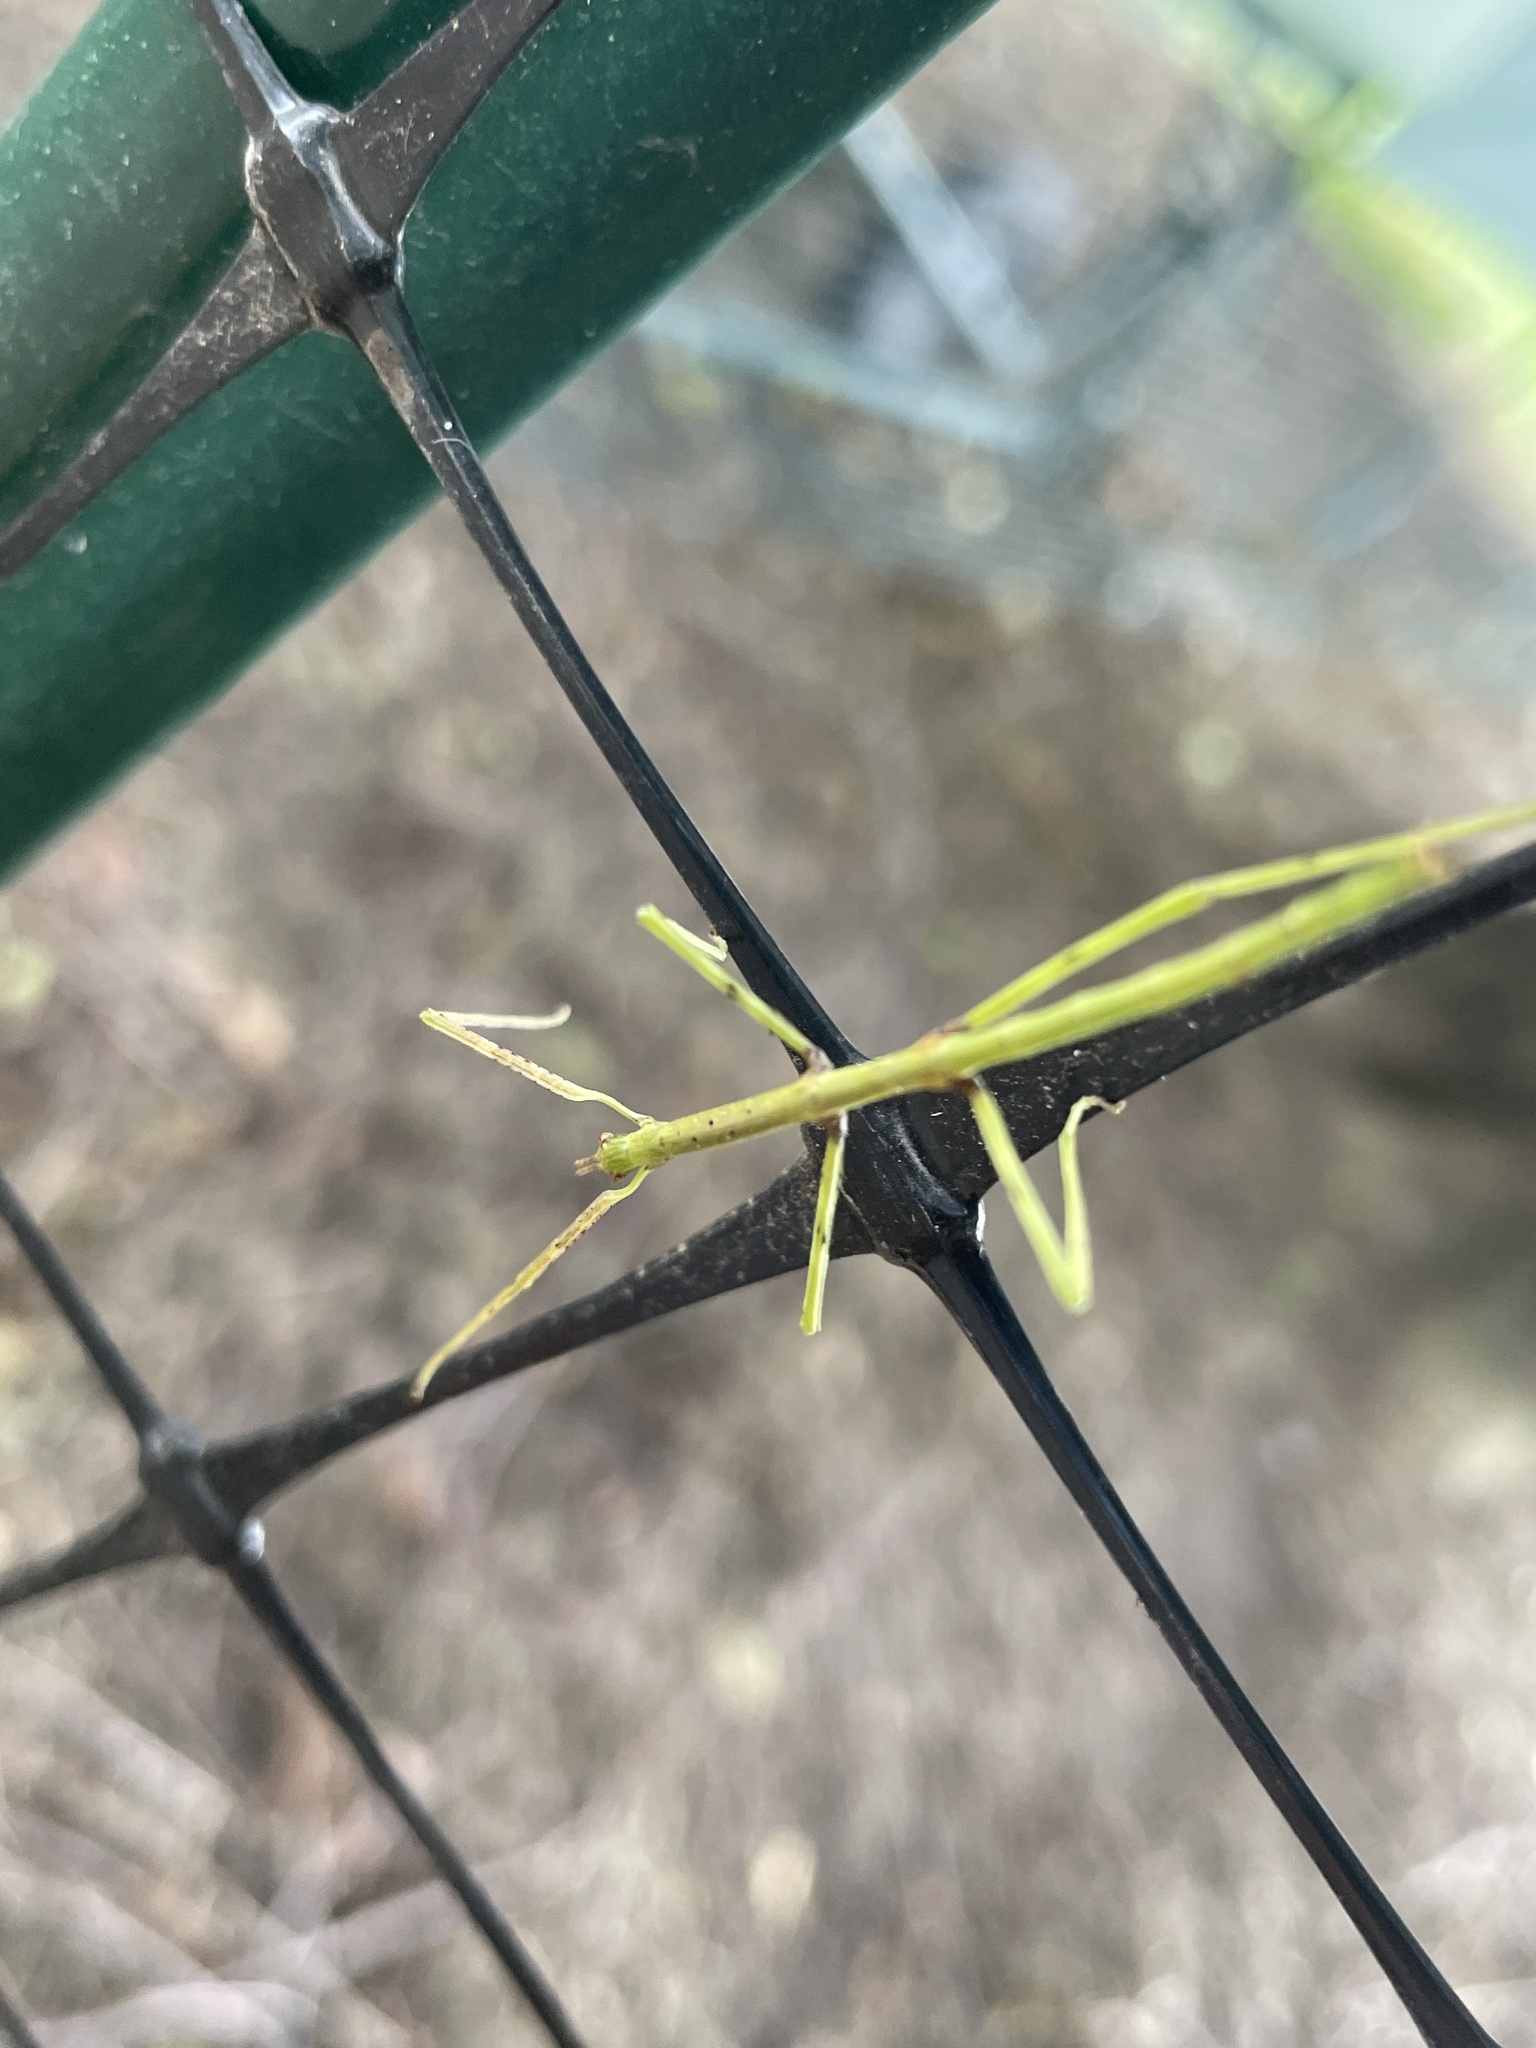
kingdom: Animalia
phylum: Arthropoda
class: Insecta
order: Phasmida
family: Phasmatidae
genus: Ctenomorpha
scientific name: Ctenomorpha marginipennis
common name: Margined-winged stick-insect
